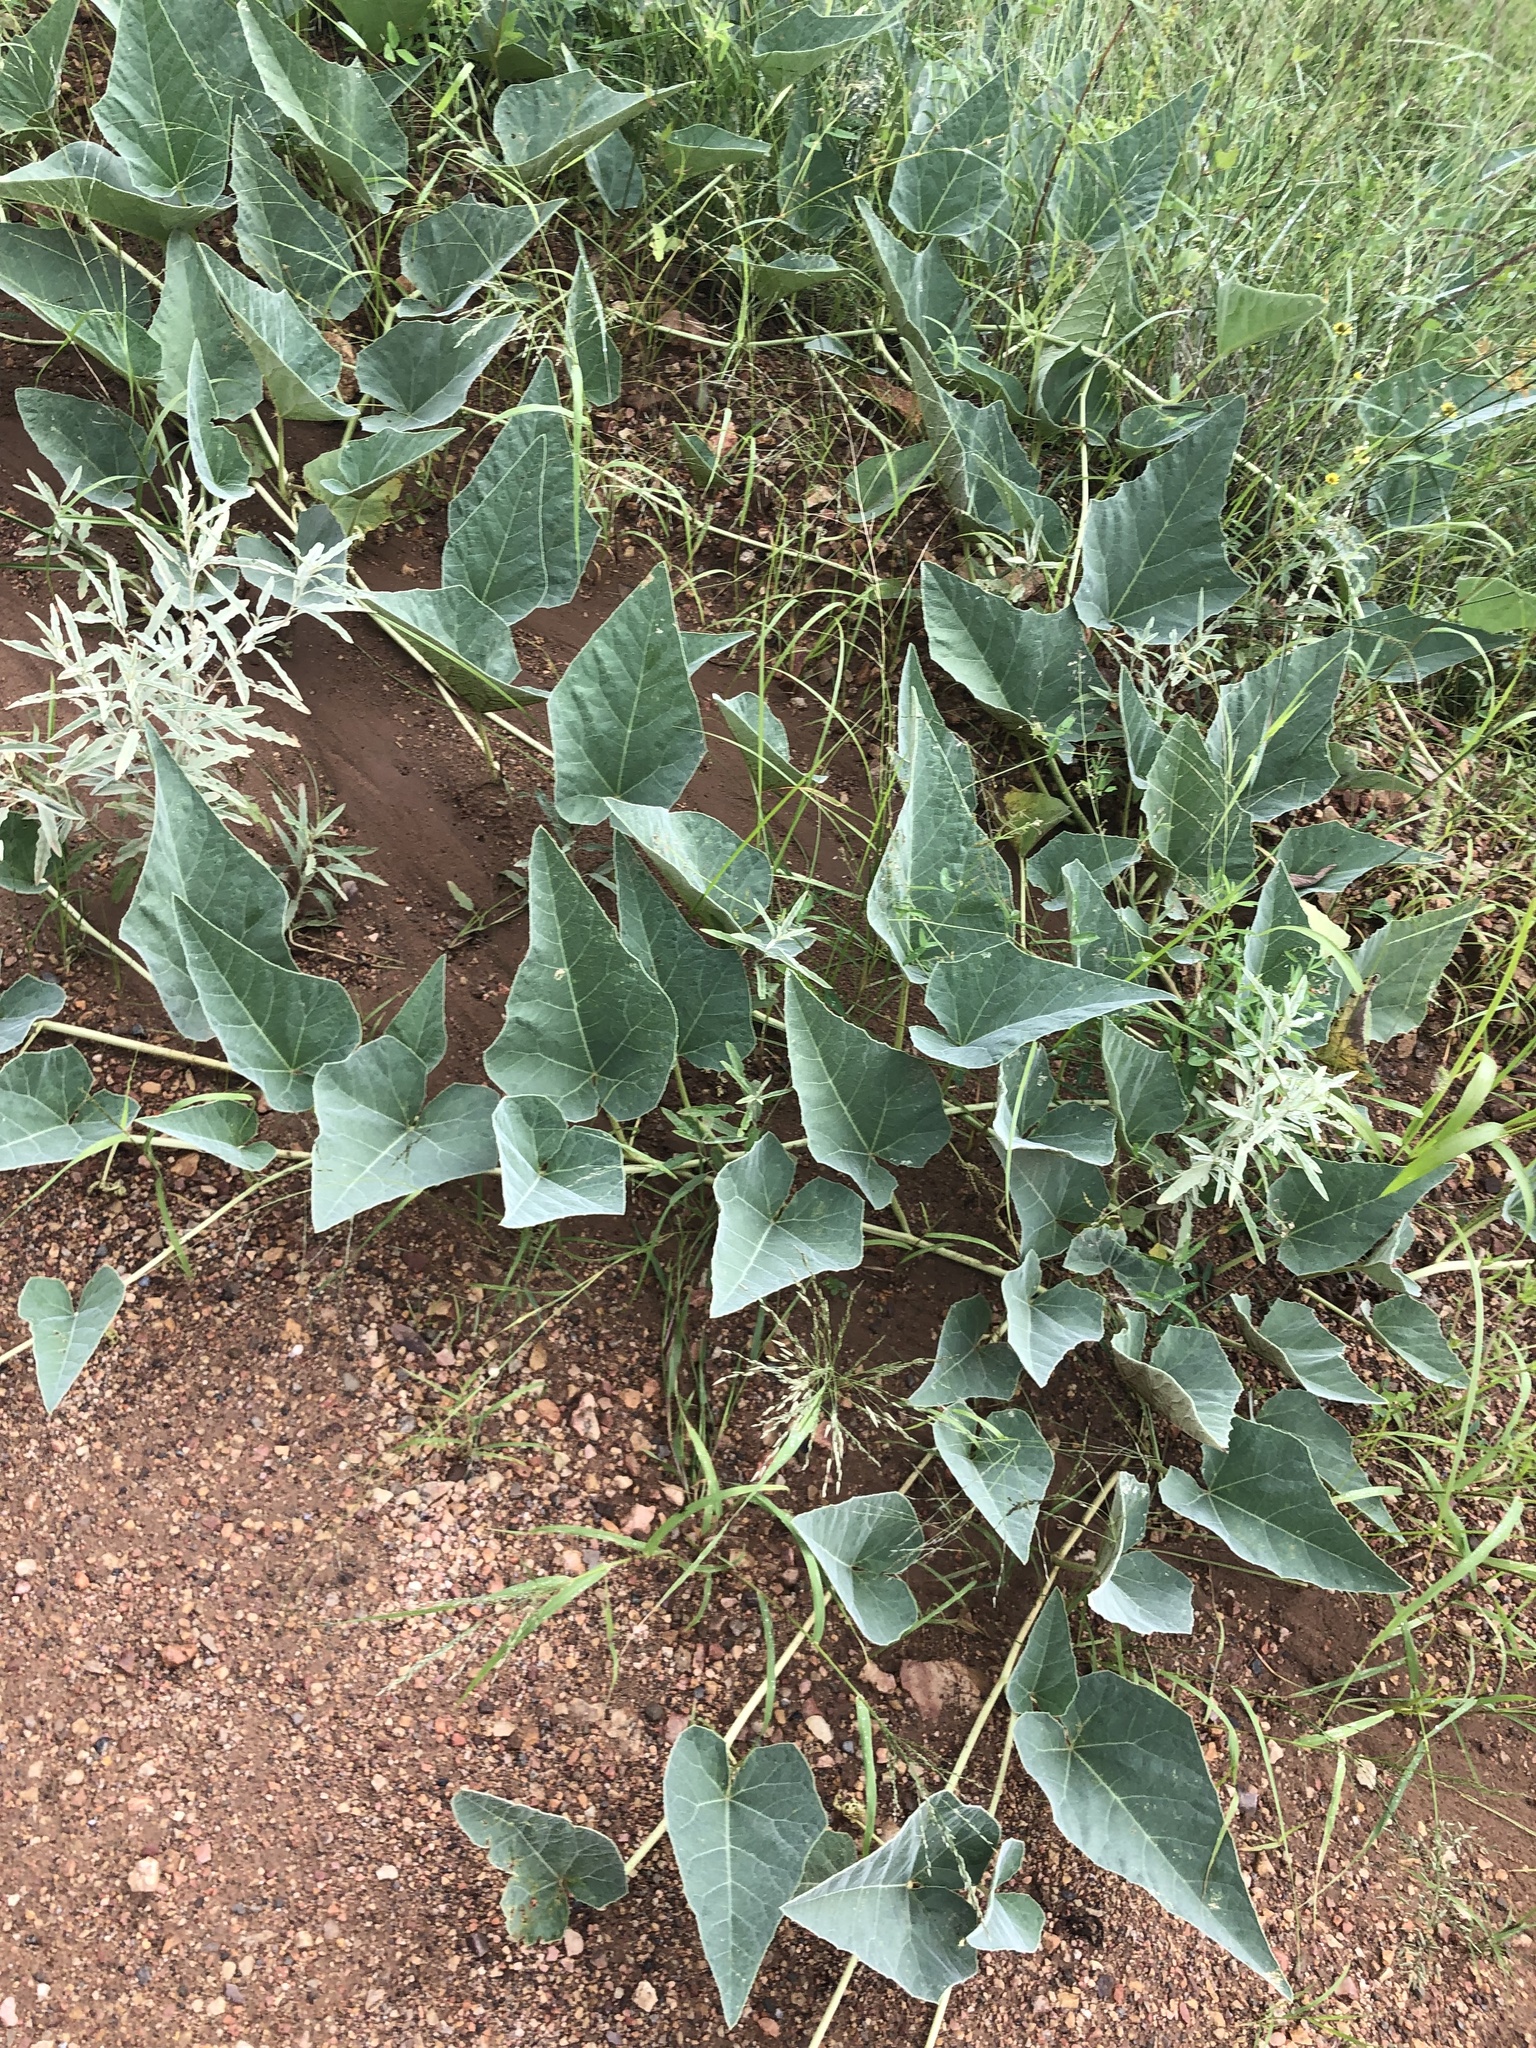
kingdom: Plantae
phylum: Tracheophyta
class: Magnoliopsida
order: Cucurbitales
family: Cucurbitaceae
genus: Cucurbita
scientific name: Cucurbita foetidissima
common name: Buffalo gourd
